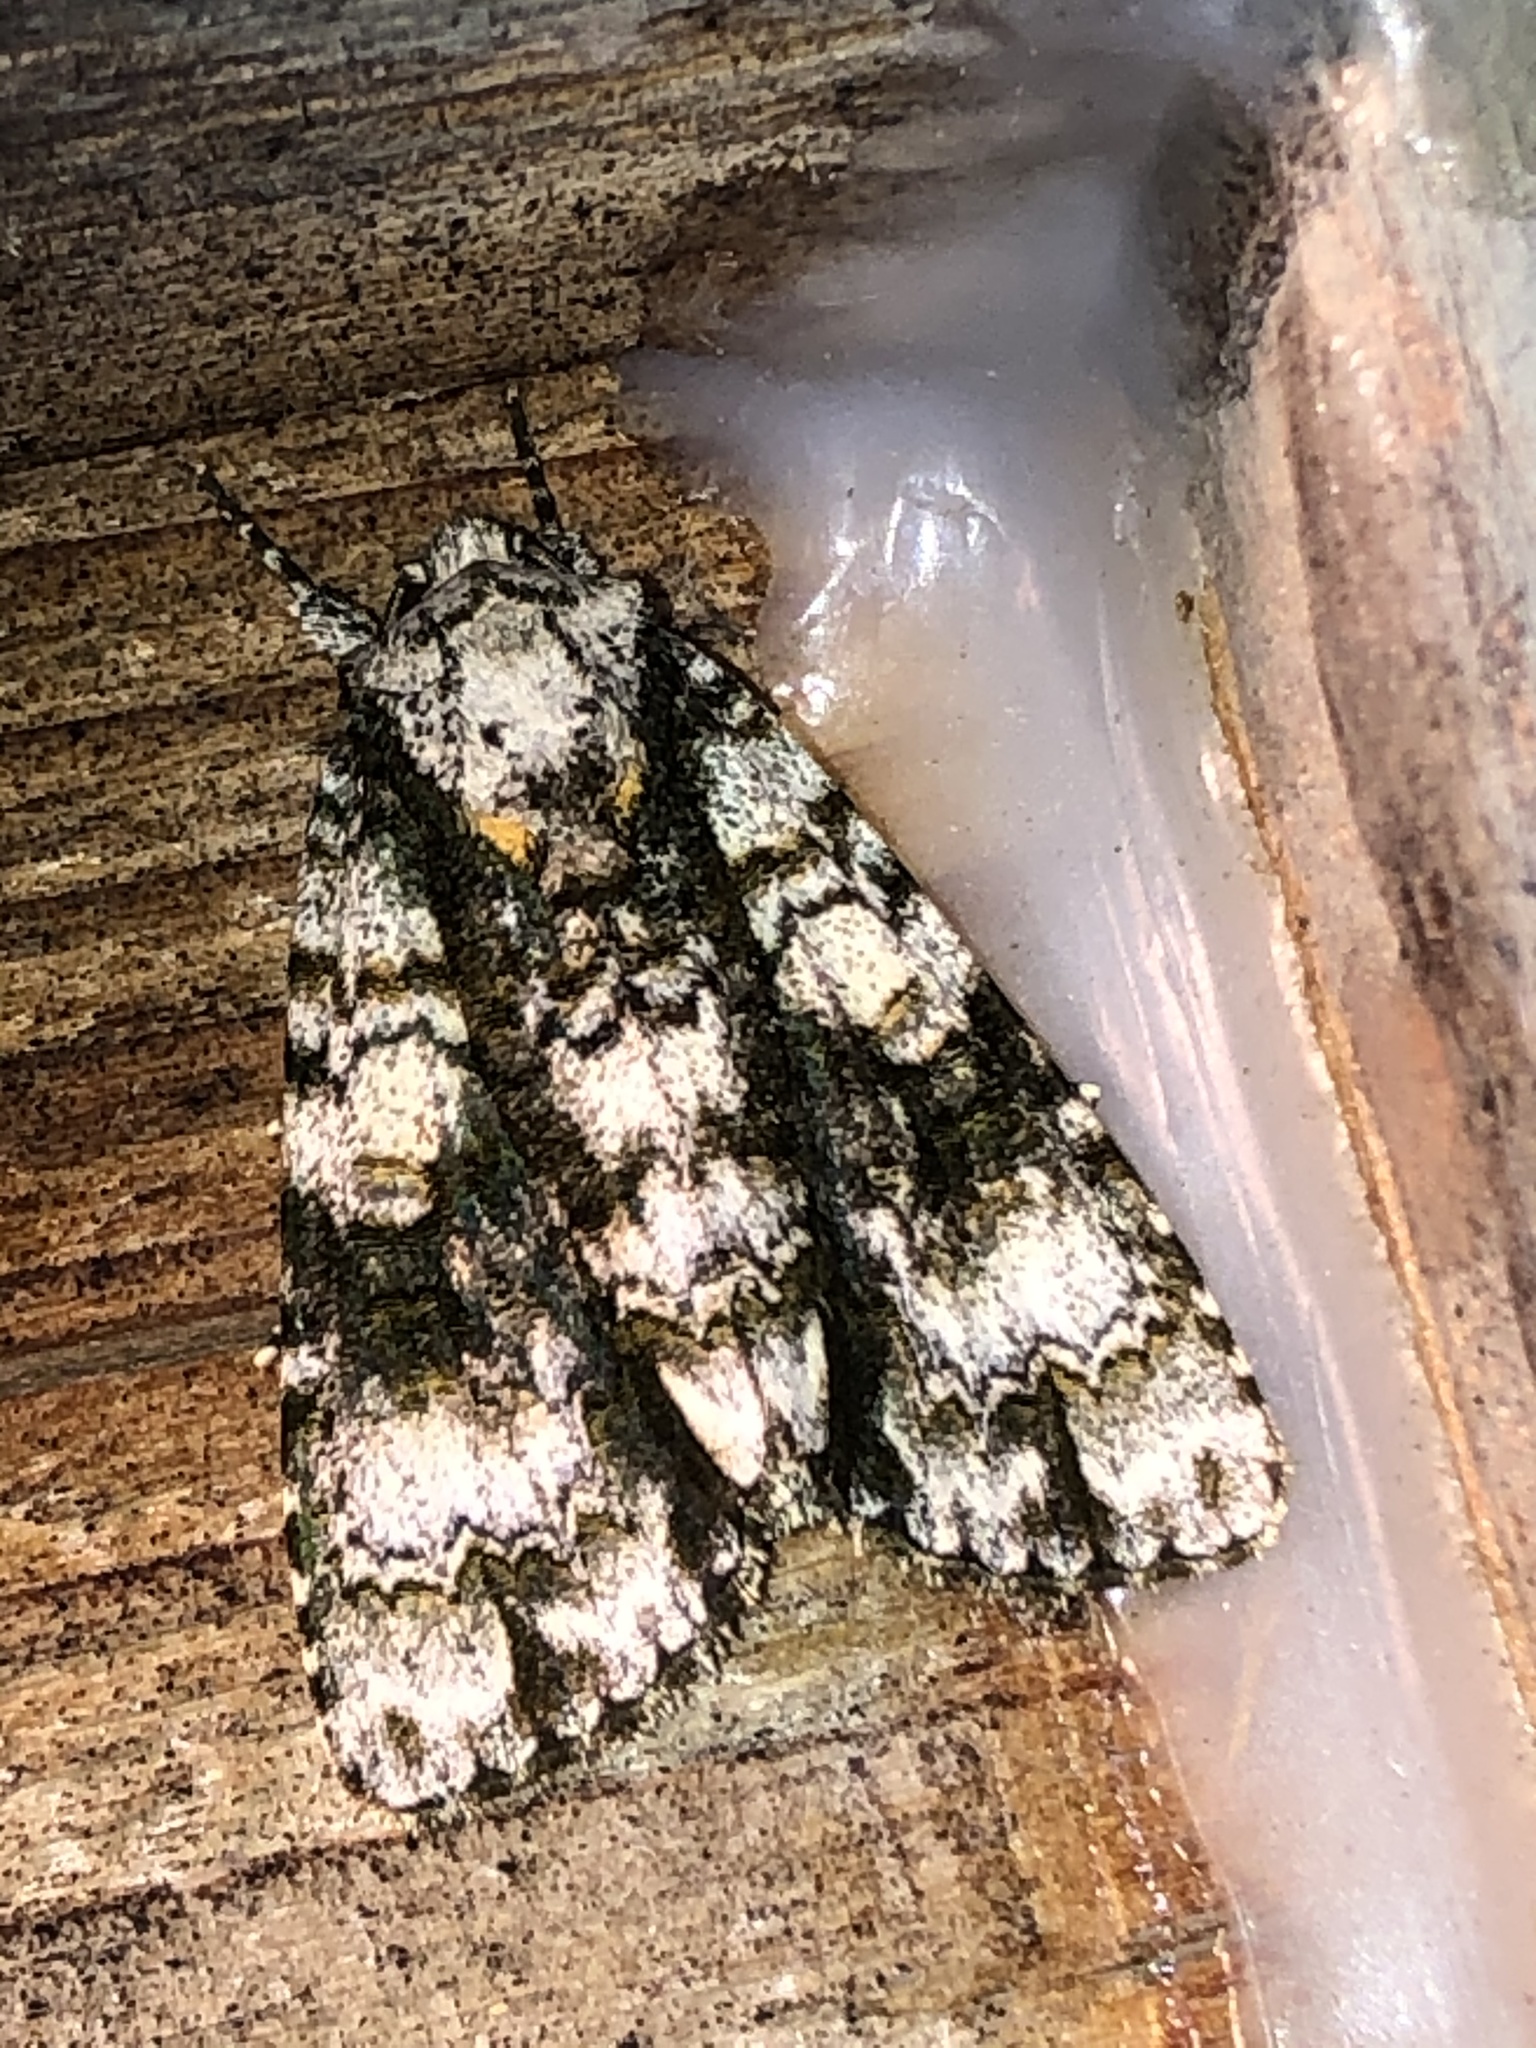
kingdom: Animalia
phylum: Arthropoda
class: Insecta
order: Lepidoptera
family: Noctuidae
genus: Acronicta
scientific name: Acronicta superans
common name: Splendid dagger
